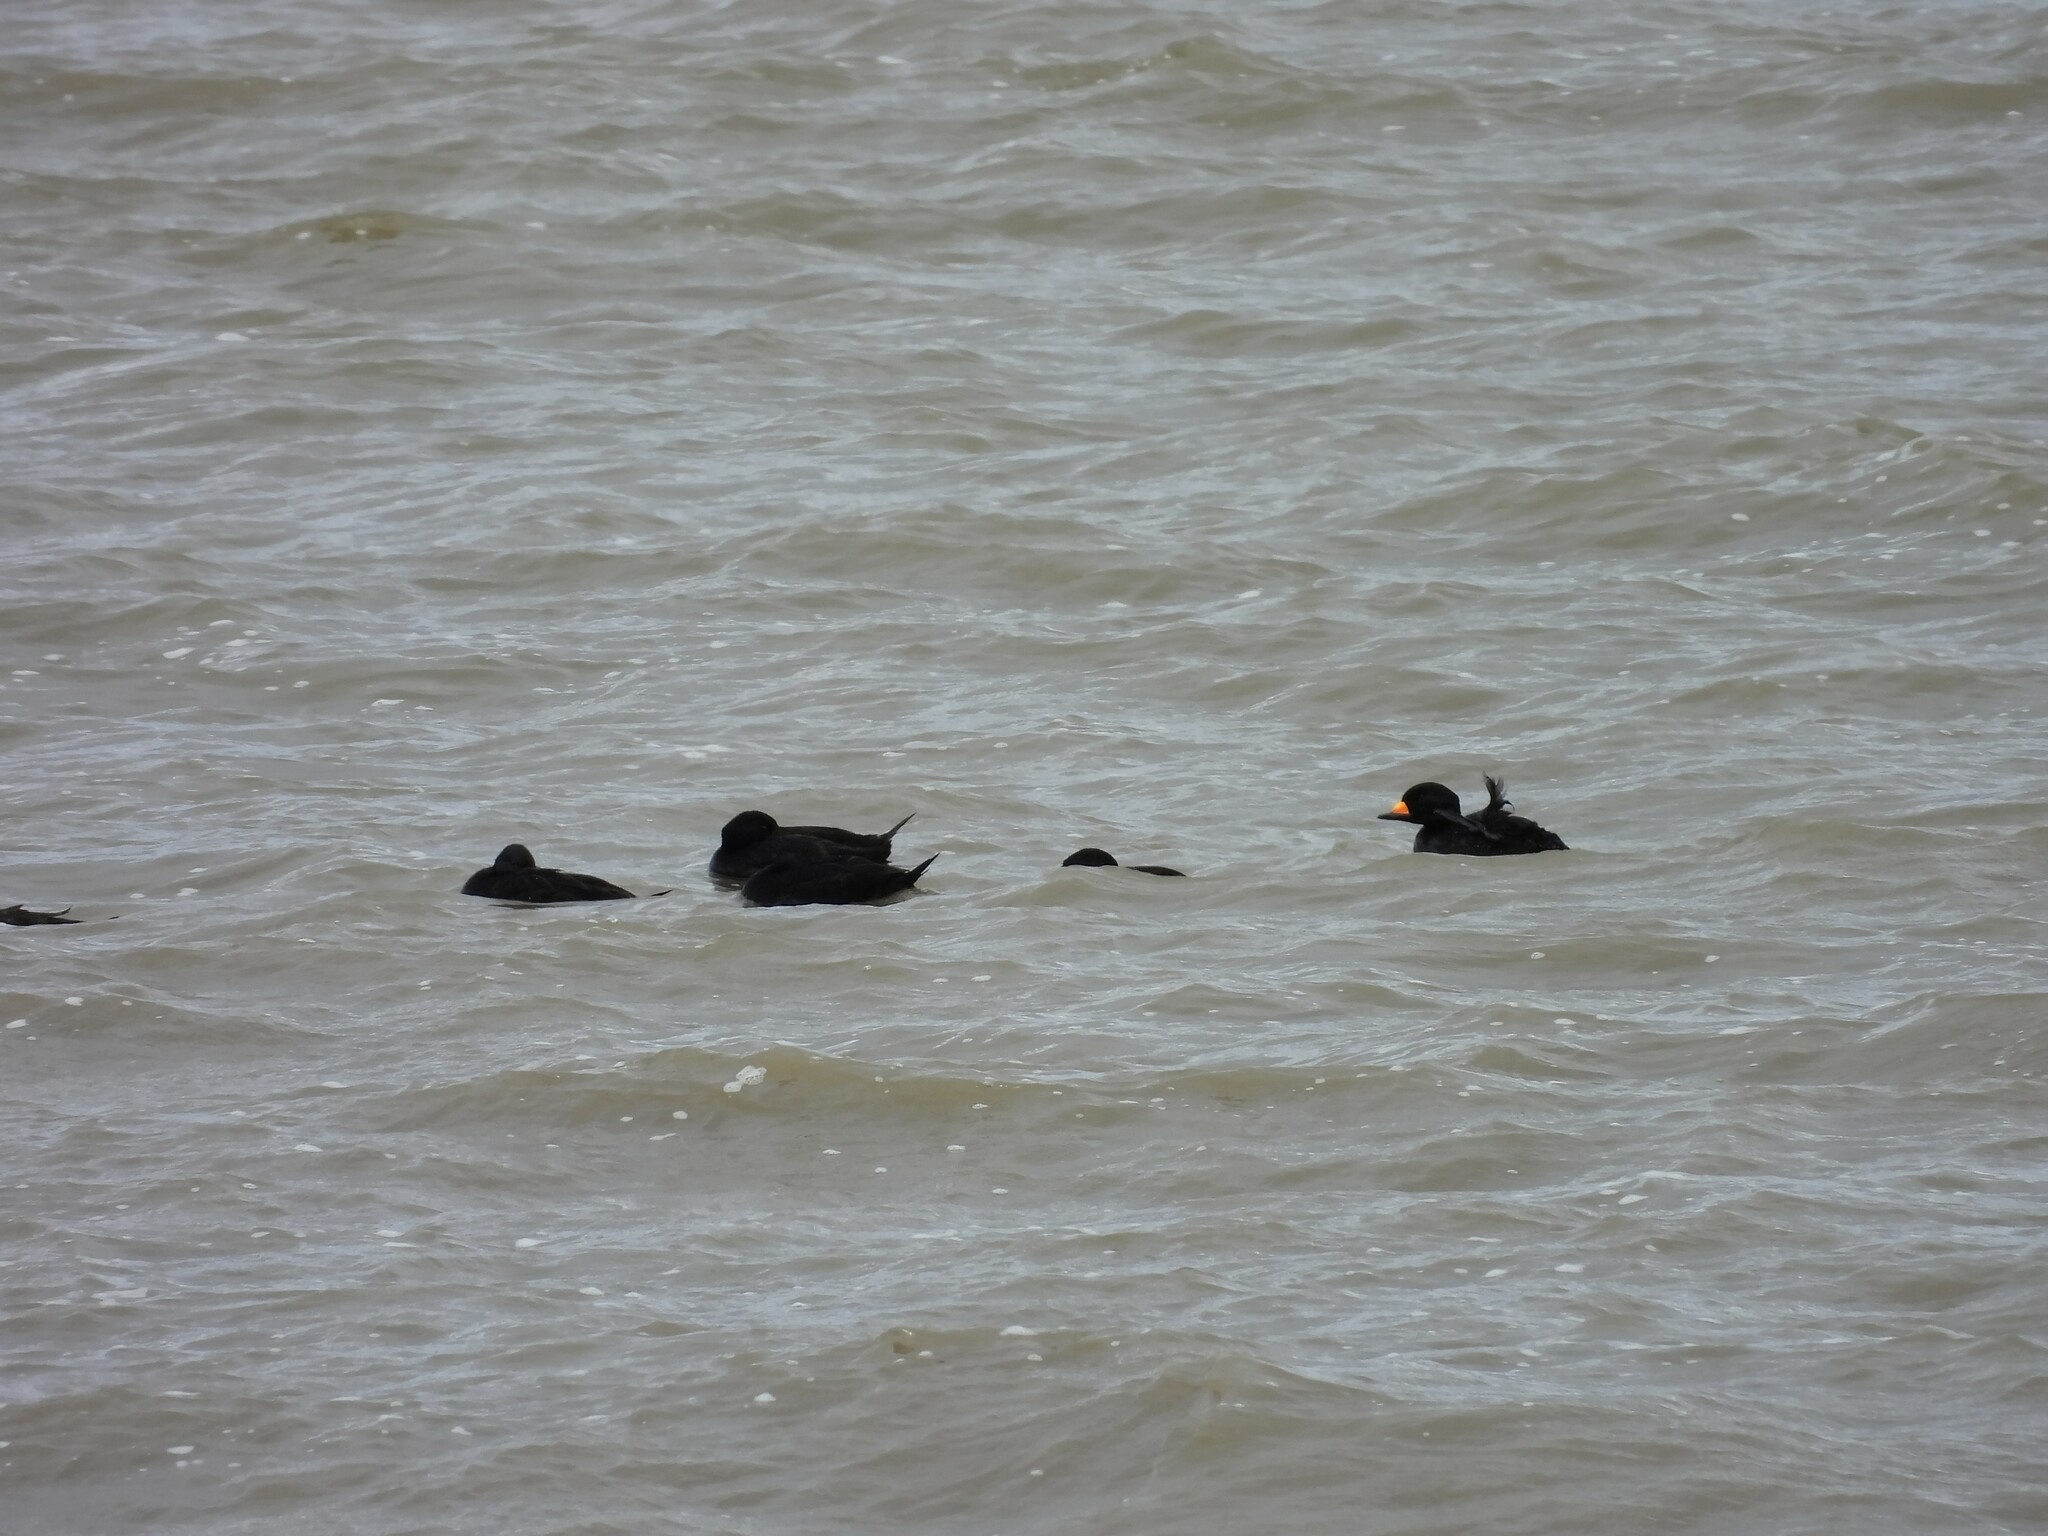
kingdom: Animalia
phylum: Chordata
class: Aves
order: Anseriformes
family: Anatidae
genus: Melanitta
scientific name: Melanitta americana
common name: Black scoter
